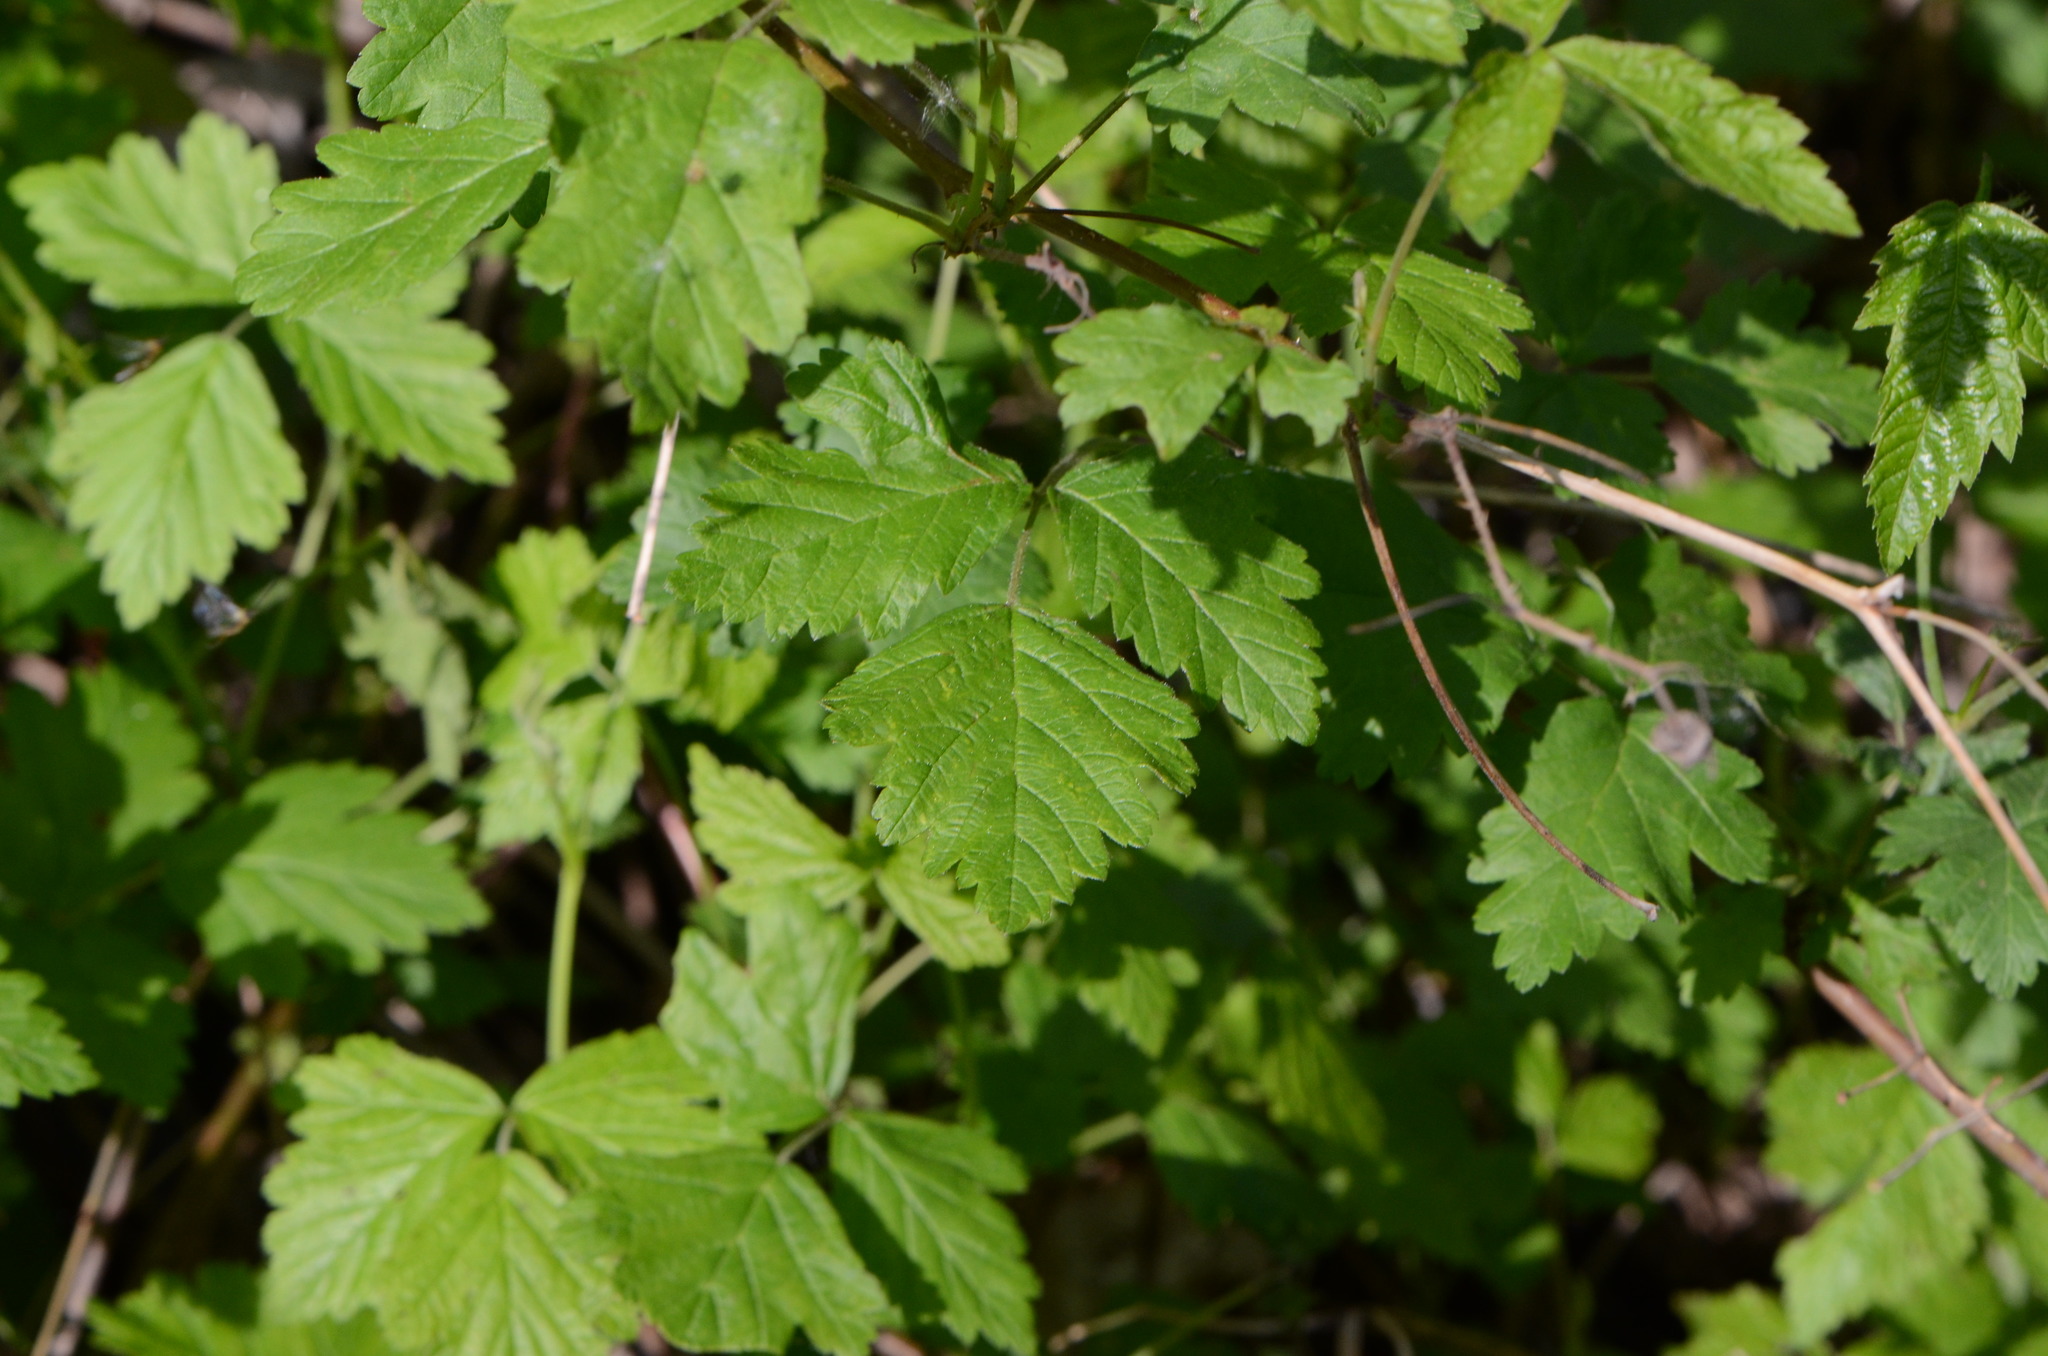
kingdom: Plantae
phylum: Tracheophyta
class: Magnoliopsida
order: Rosales
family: Rosaceae
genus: Rubus
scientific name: Rubus caesius
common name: Dewberry
